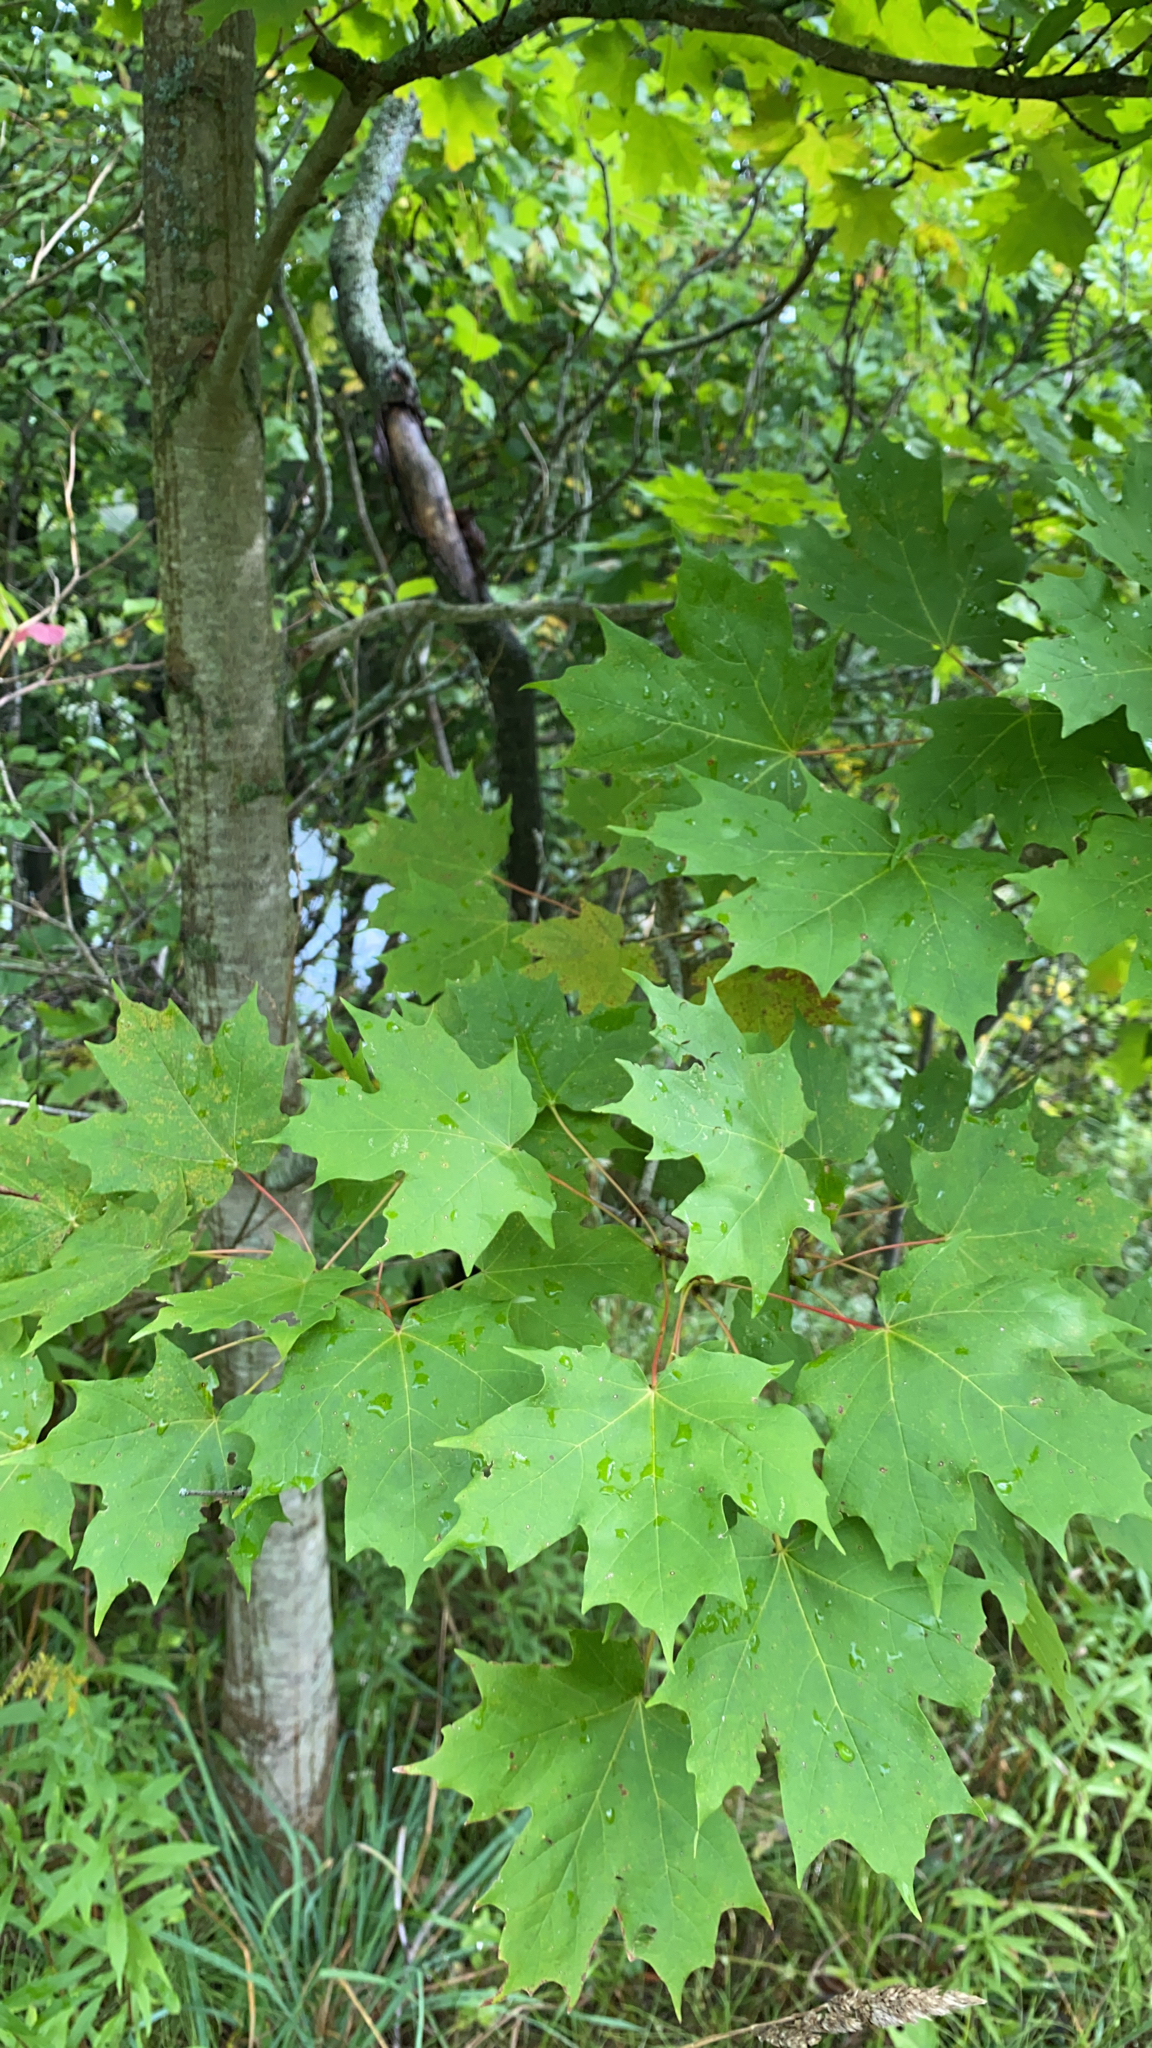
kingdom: Plantae
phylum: Tracheophyta
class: Magnoliopsida
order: Sapindales
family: Sapindaceae
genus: Acer
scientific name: Acer saccharum
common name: Sugar maple
